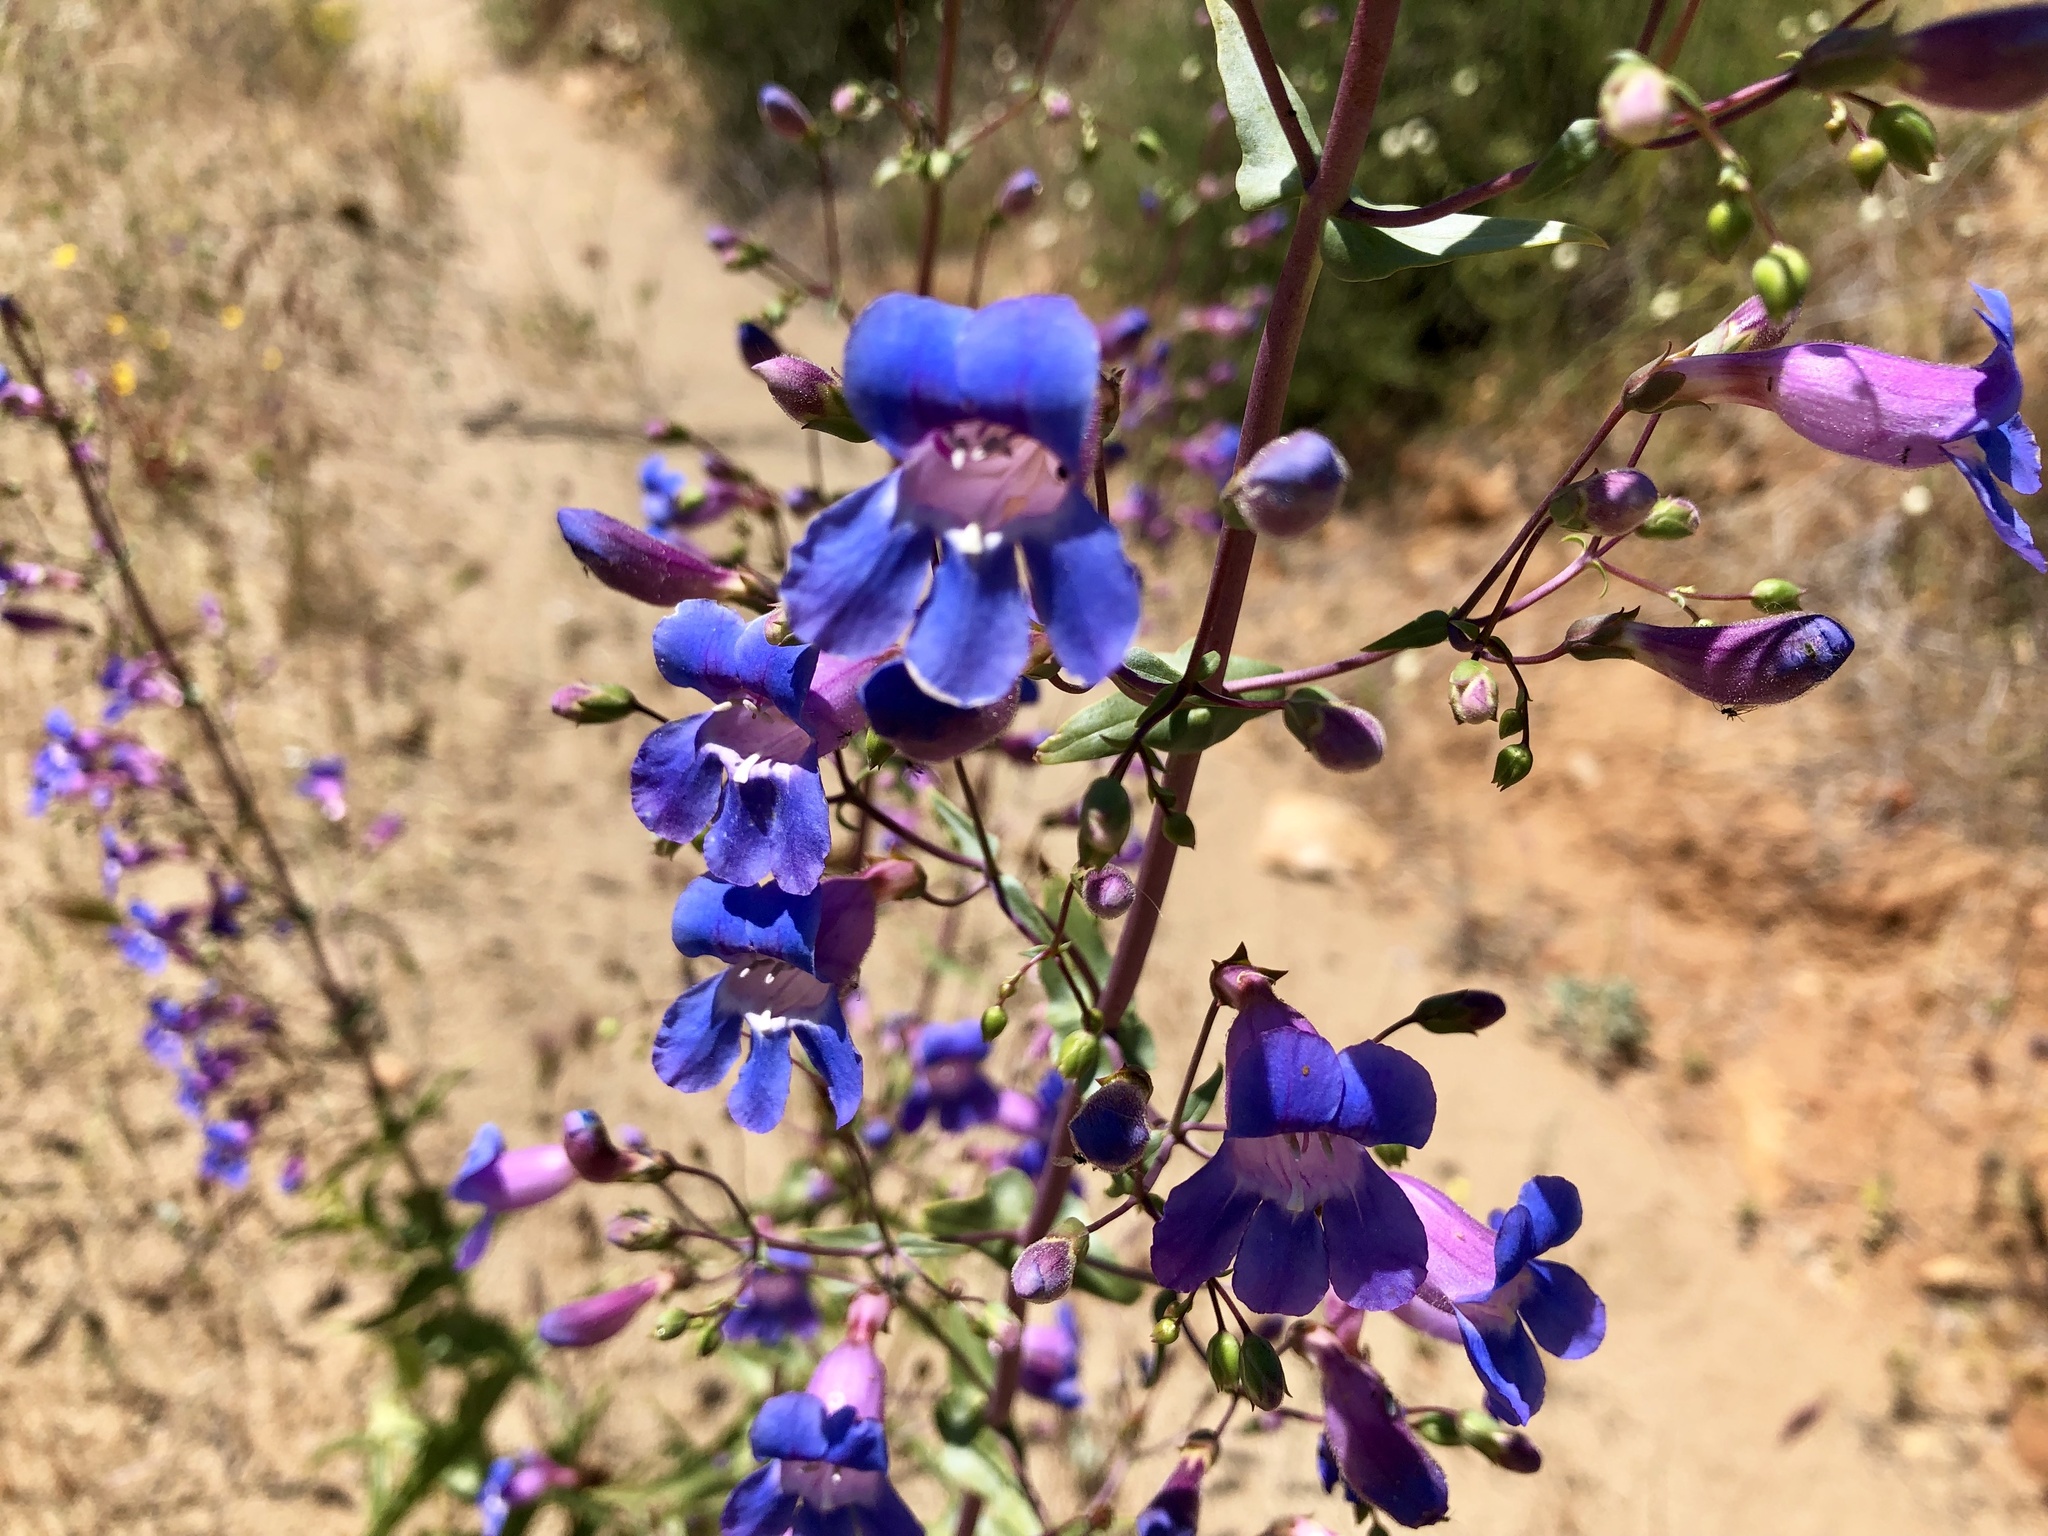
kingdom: Plantae
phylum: Tracheophyta
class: Magnoliopsida
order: Lamiales
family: Plantaginaceae
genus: Penstemon
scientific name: Penstemon spectabilis
